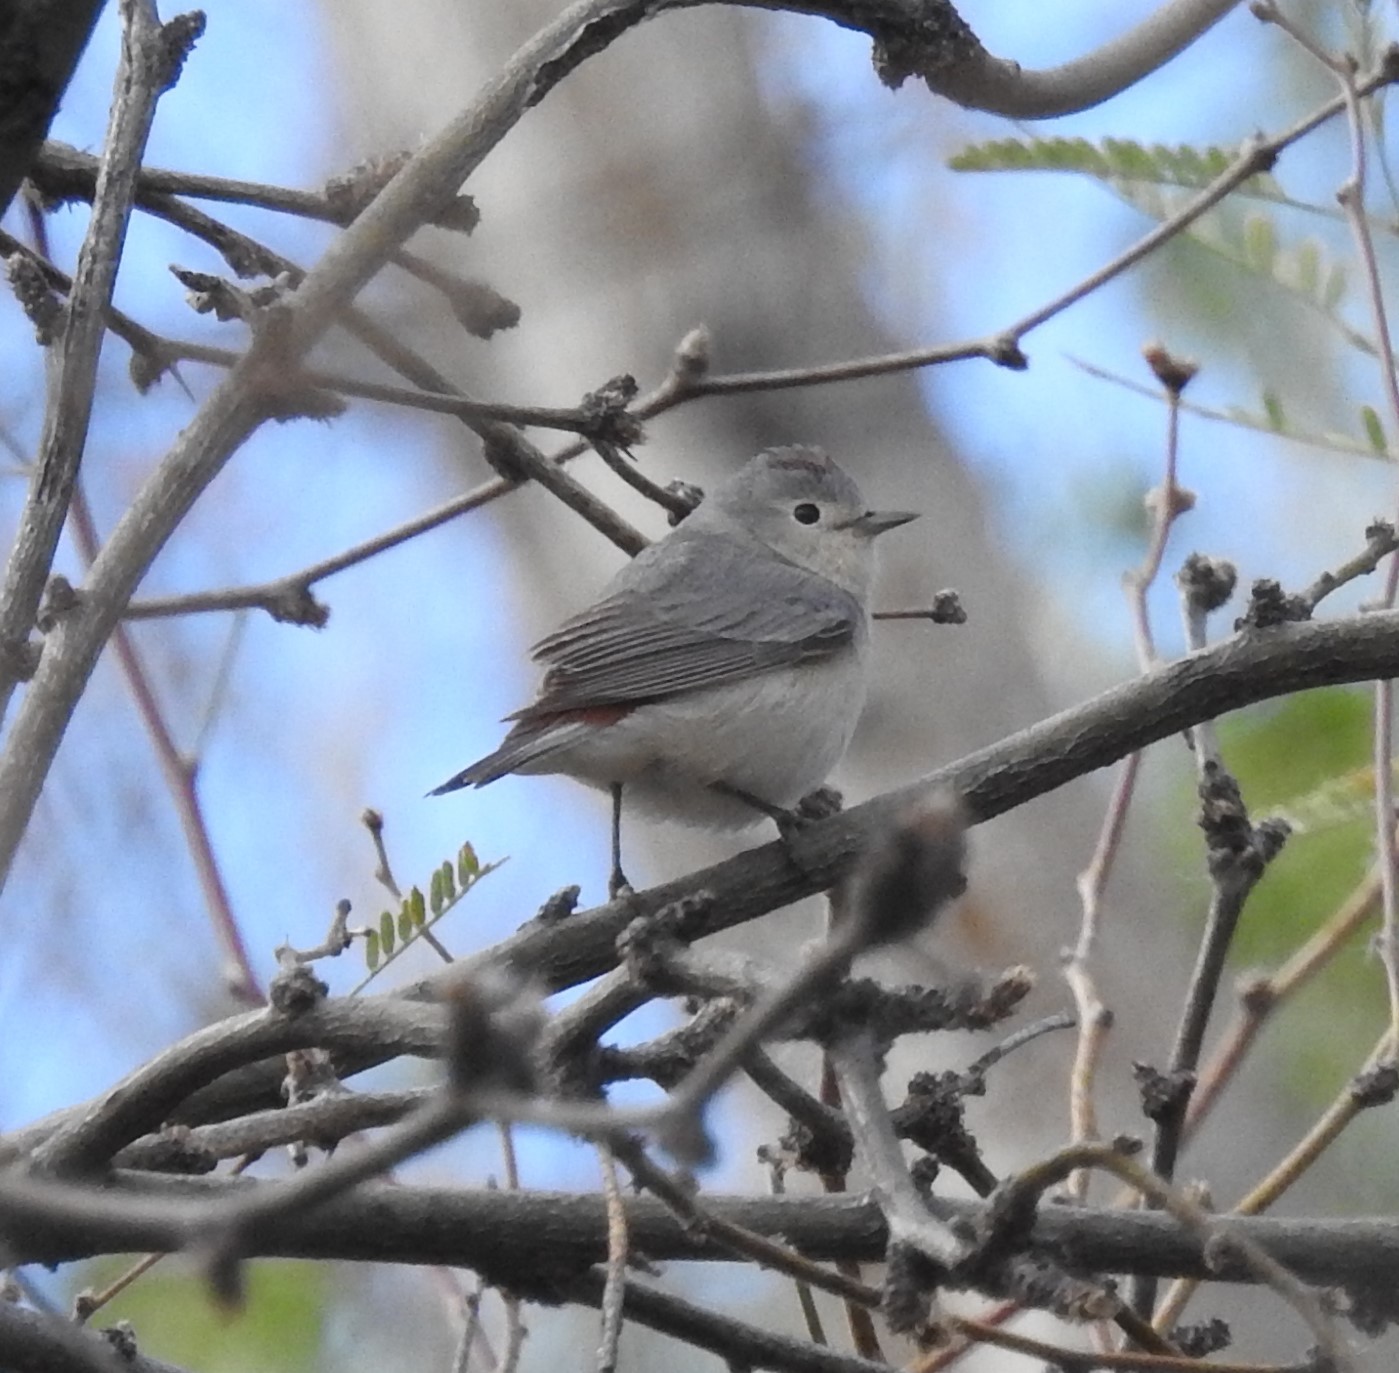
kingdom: Animalia
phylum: Chordata
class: Aves
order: Passeriformes
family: Parulidae
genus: Leiothlypis
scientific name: Leiothlypis luciae
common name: Lucy's warbler
